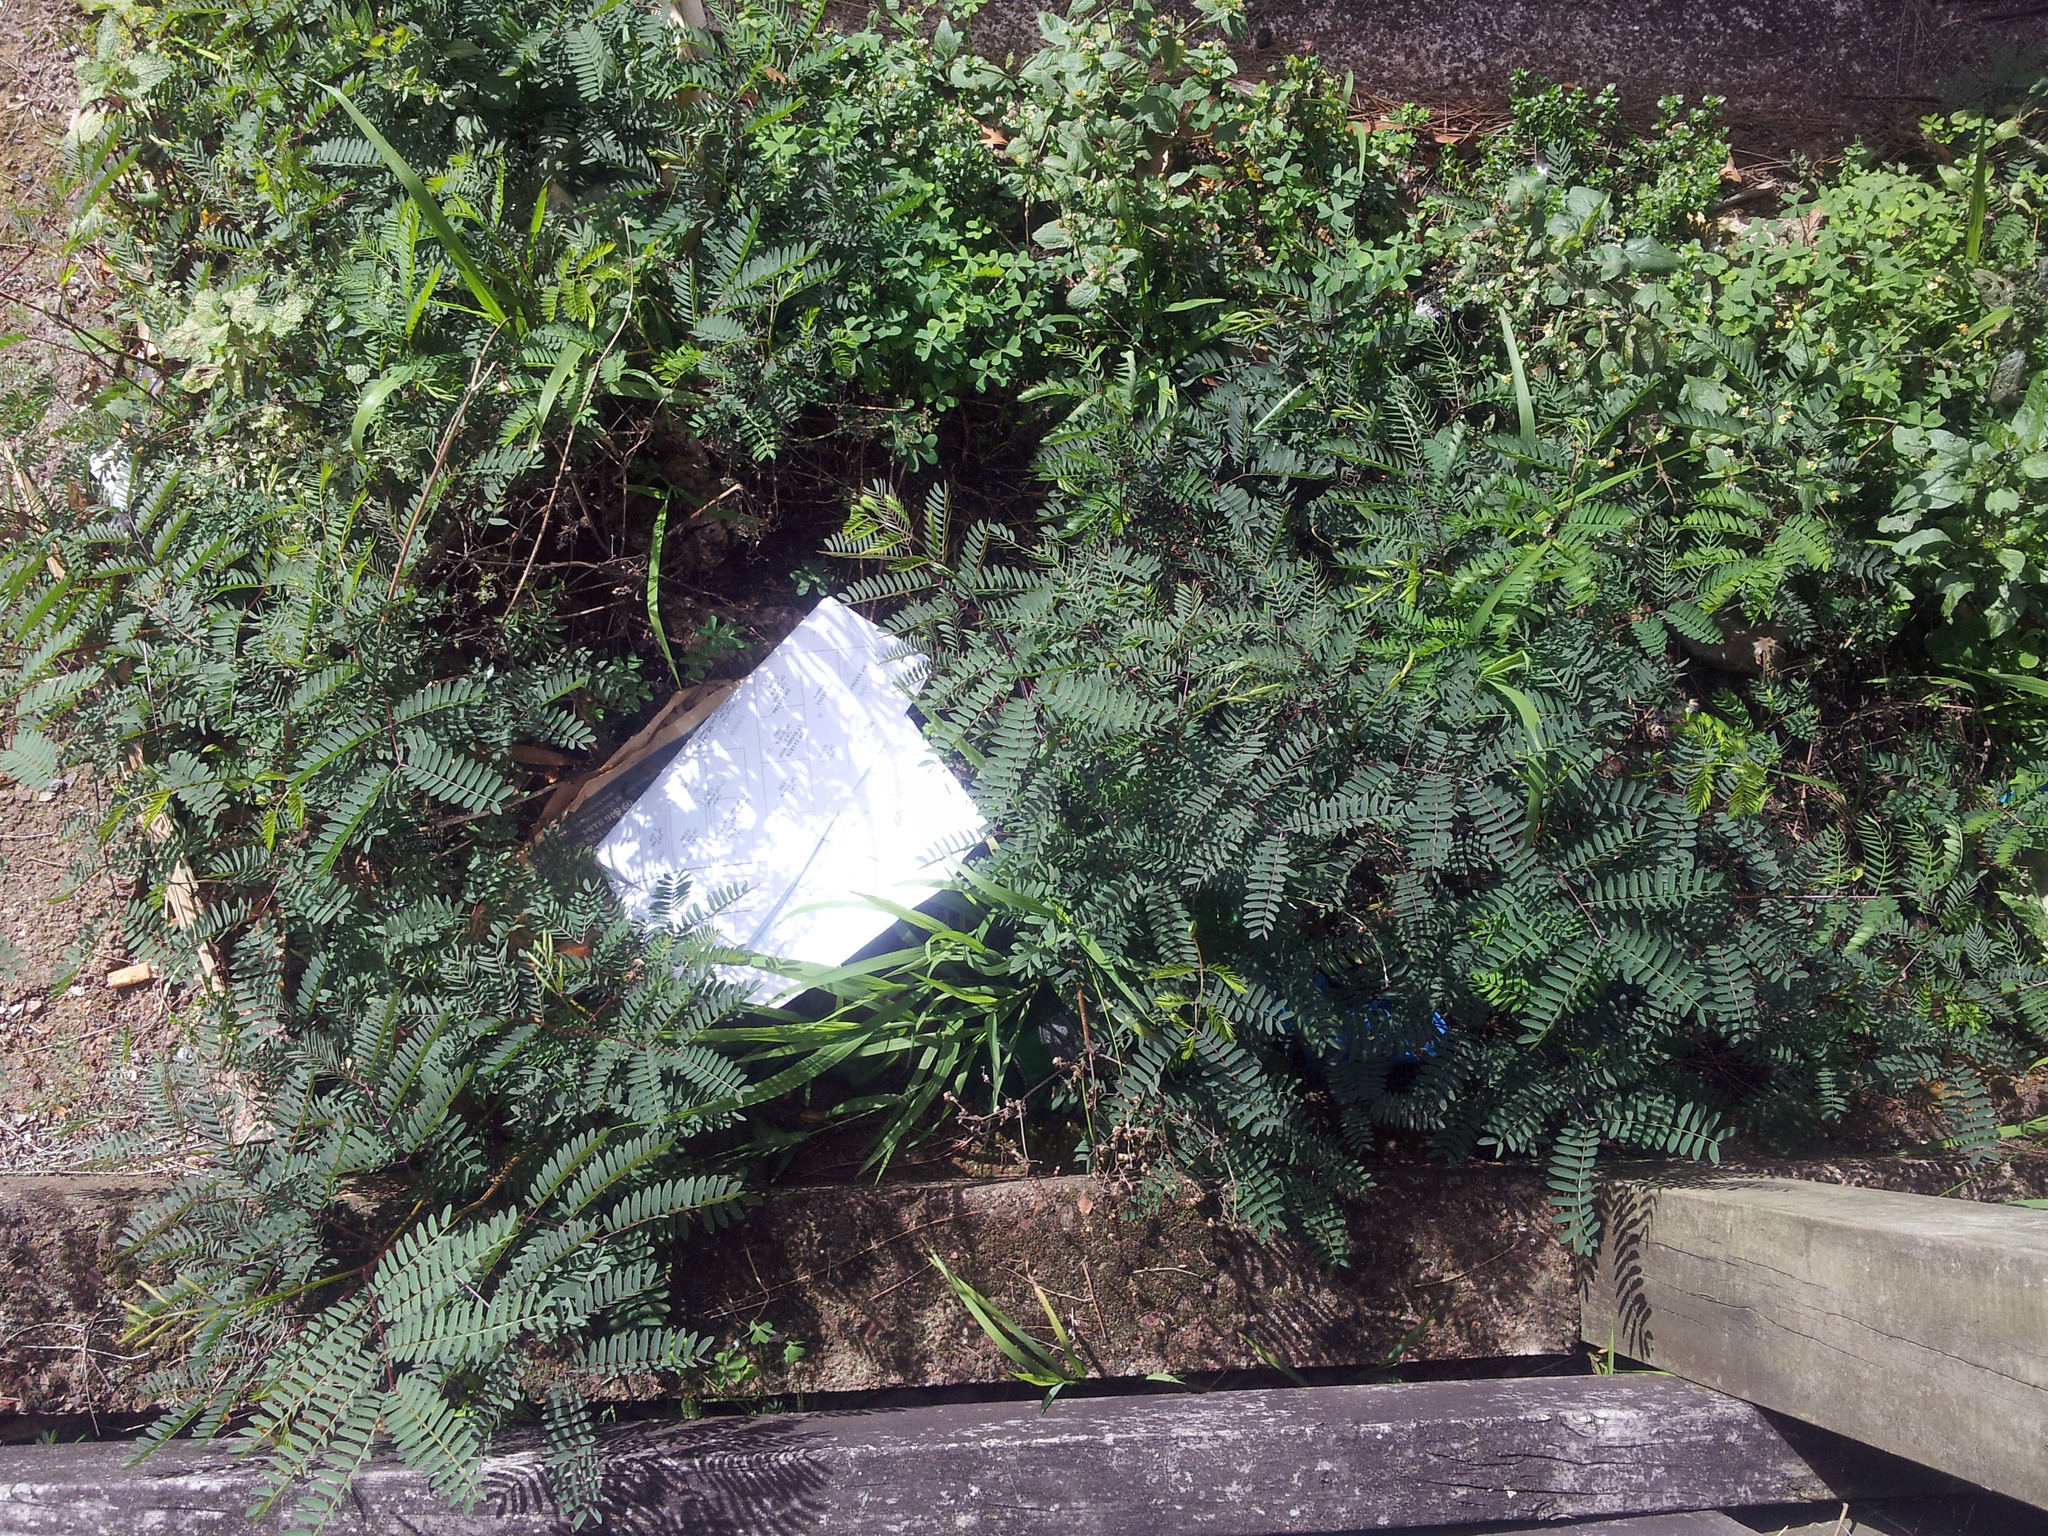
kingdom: Plantae
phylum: Tracheophyta
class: Magnoliopsida
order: Fabales
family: Fabaceae
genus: Leucaena
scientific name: Leucaena leucocephala
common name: White leadtree
